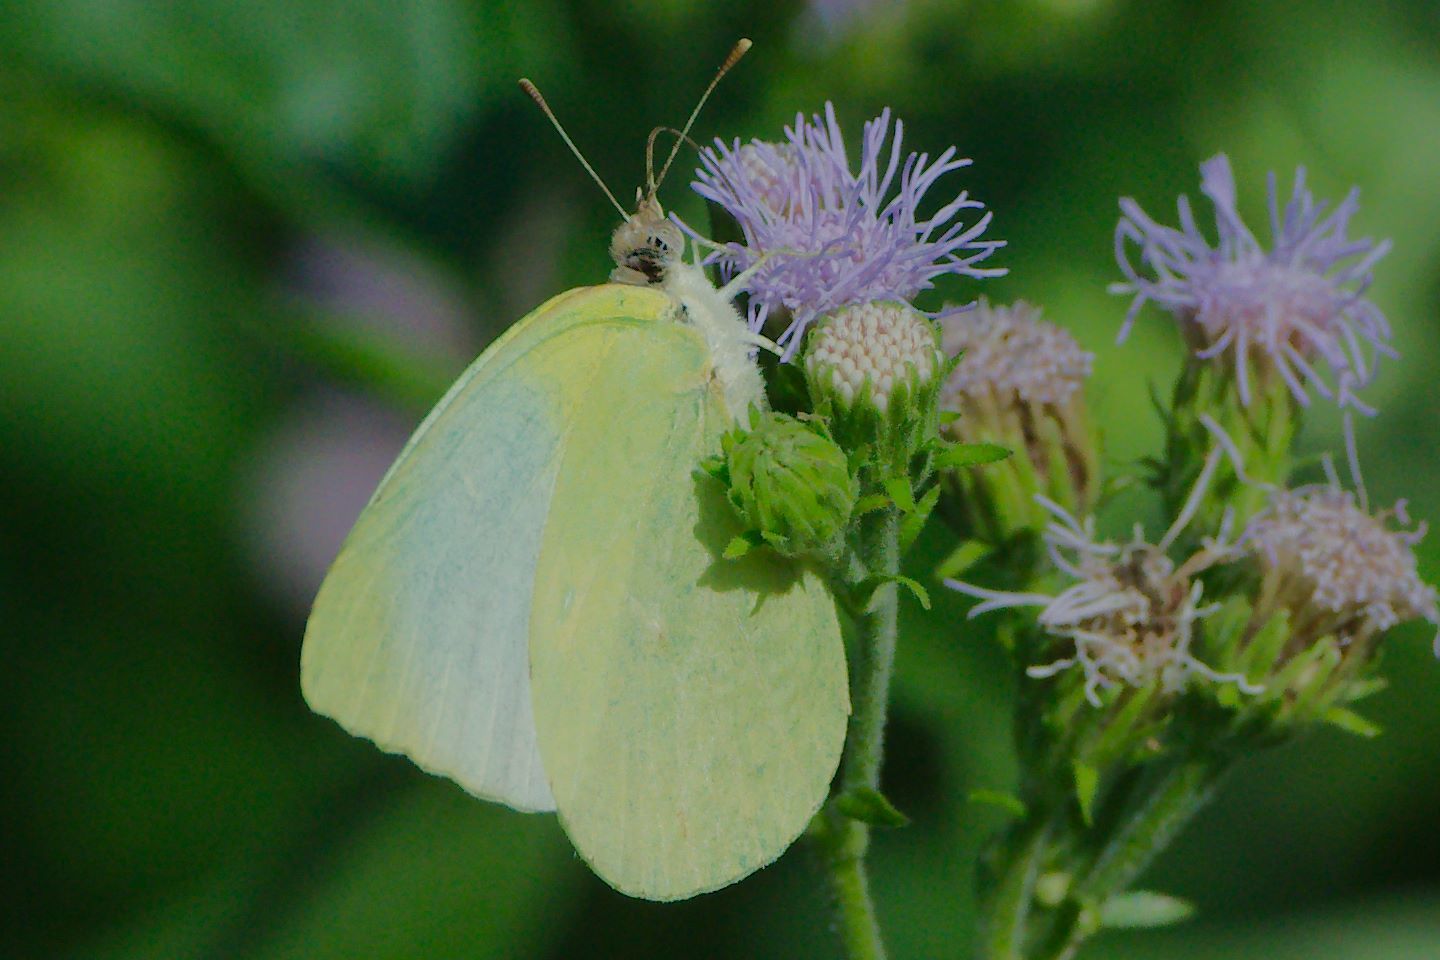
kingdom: Animalia
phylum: Arthropoda
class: Insecta
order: Lepidoptera
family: Pieridae
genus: Kricogonia
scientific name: Kricogonia lyside
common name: Guayacan sulphur,
